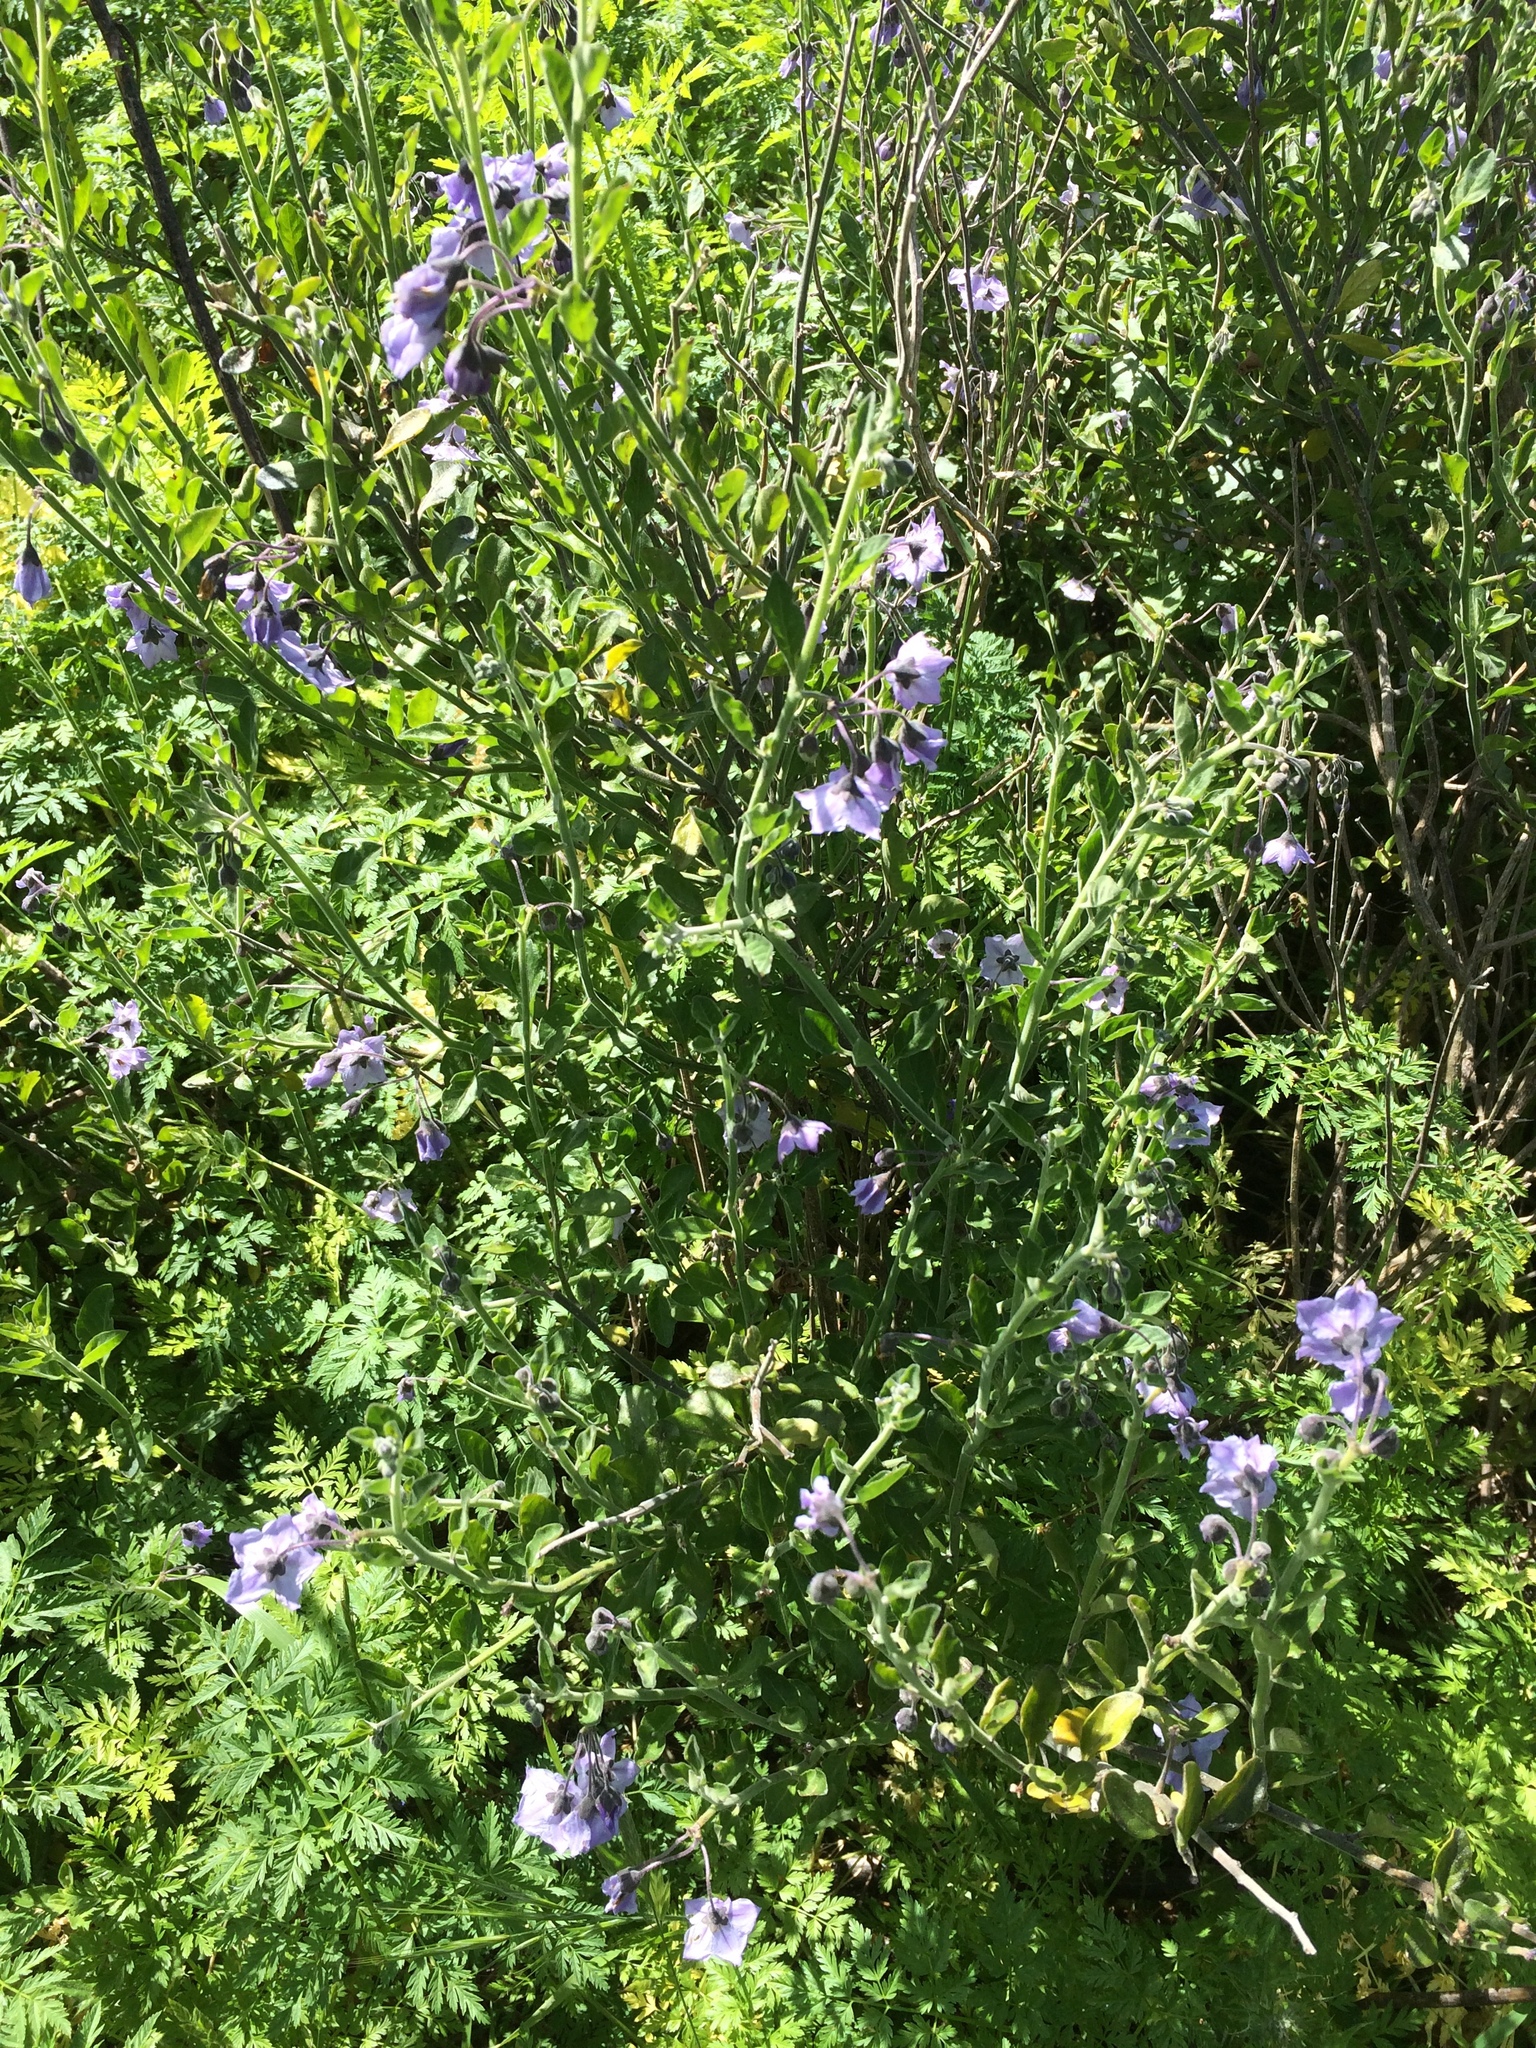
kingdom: Plantae
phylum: Tracheophyta
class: Magnoliopsida
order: Solanales
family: Solanaceae
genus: Solanum
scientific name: Solanum umbelliferum
